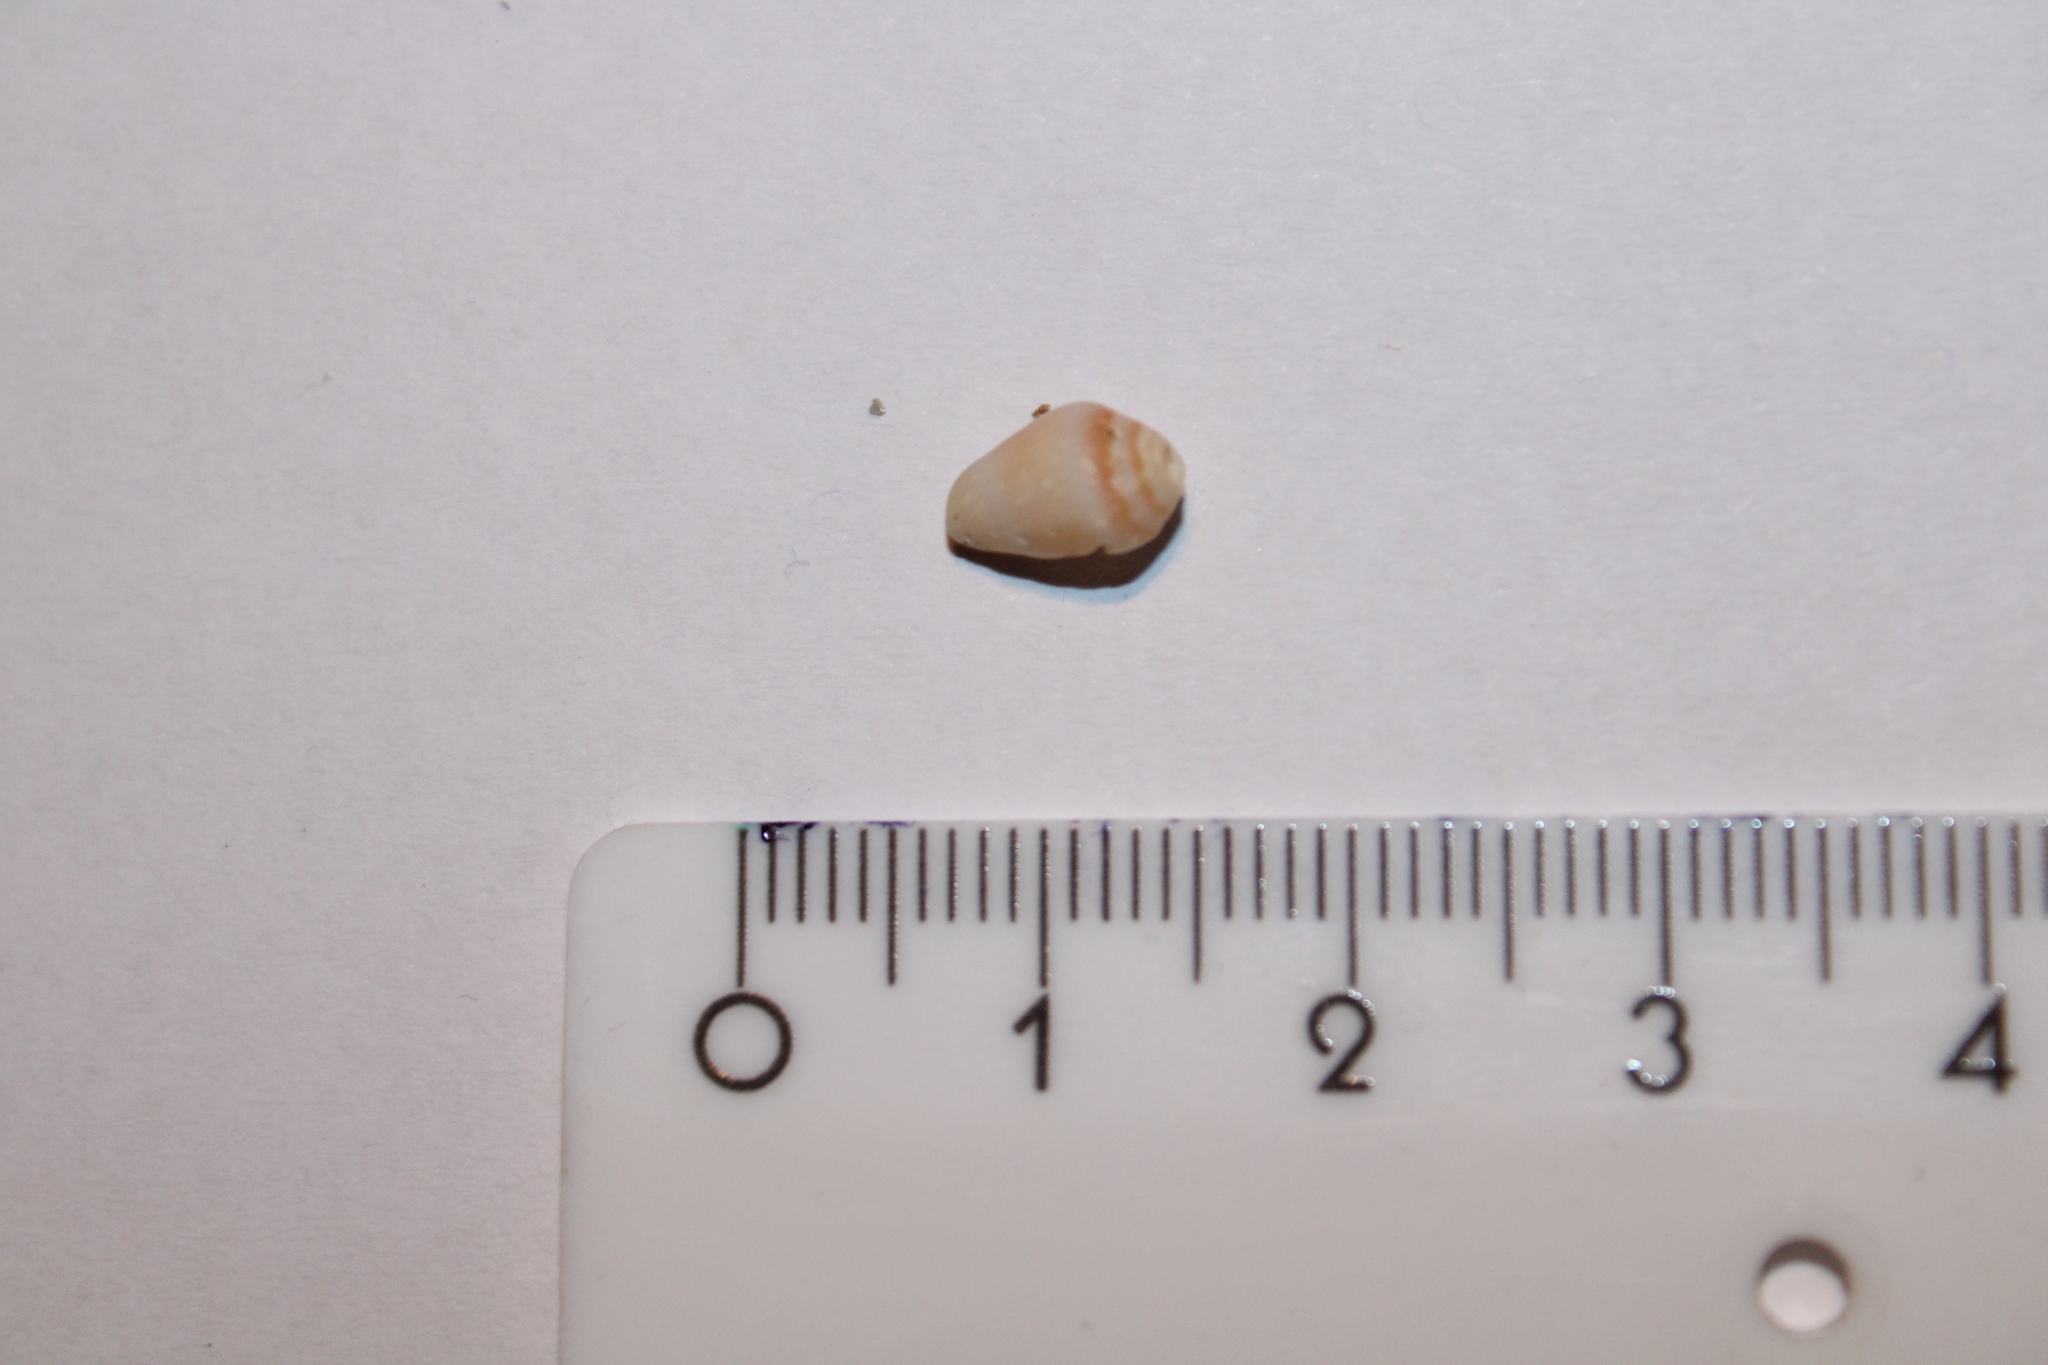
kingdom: Animalia
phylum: Mollusca
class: Gastropoda
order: Neogastropoda
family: Conidae
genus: Conus
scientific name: Conus ventricosus
